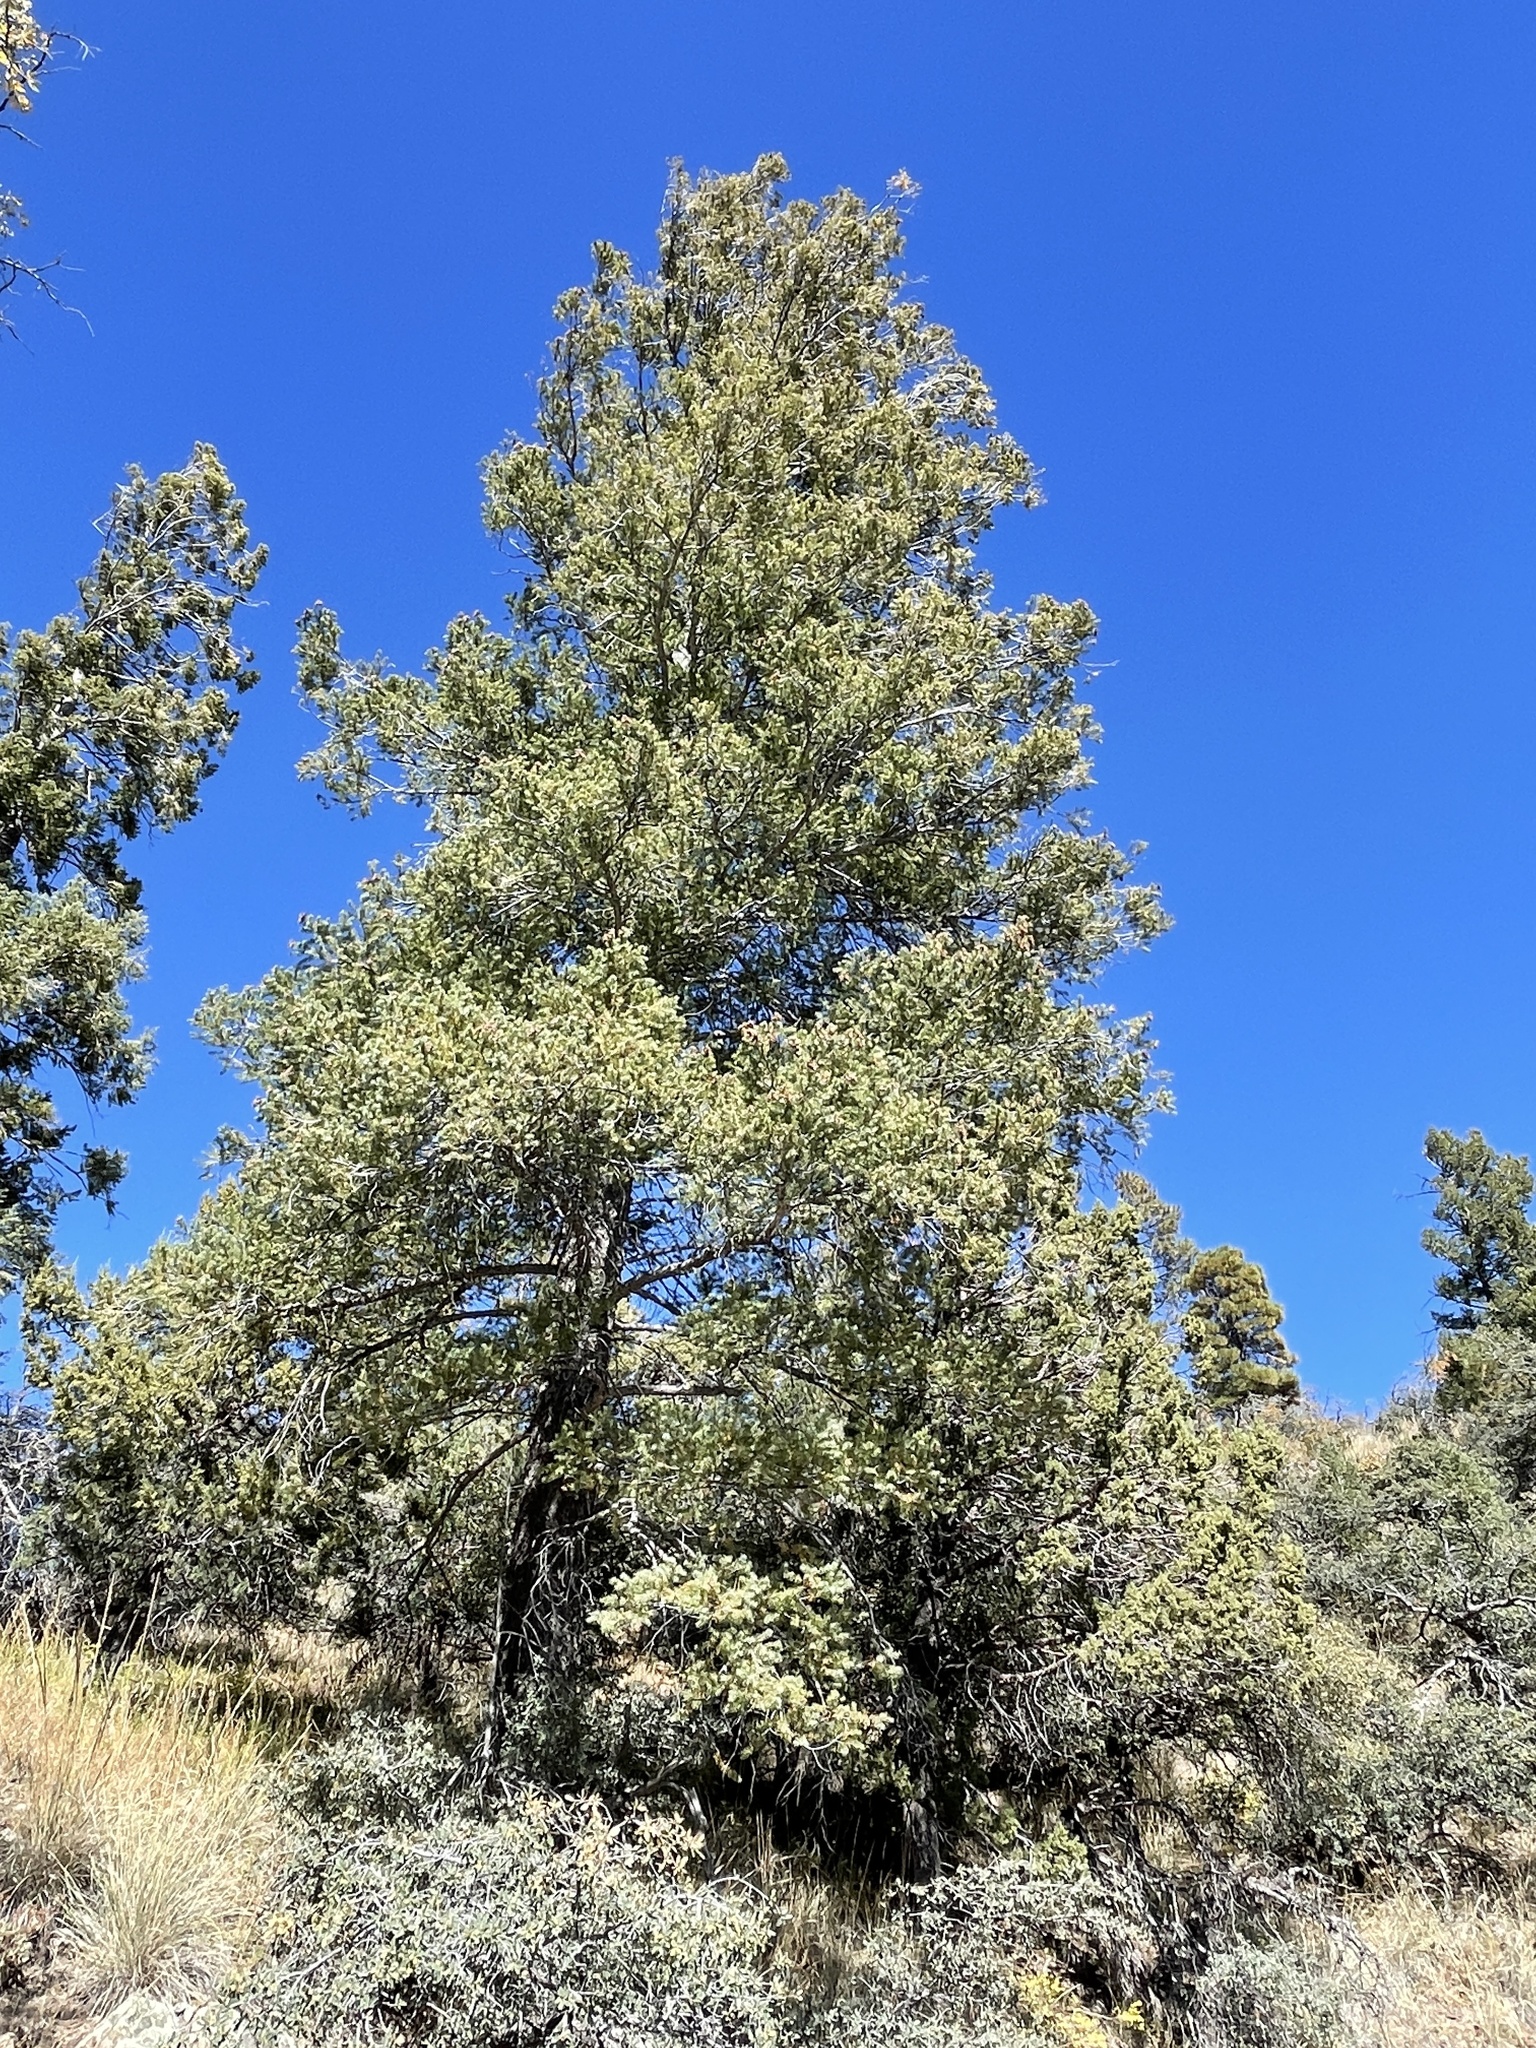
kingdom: Plantae
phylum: Tracheophyta
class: Pinopsida
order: Pinales
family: Pinaceae
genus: Pseudotsuga
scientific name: Pseudotsuga menziesii
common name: Douglas fir
